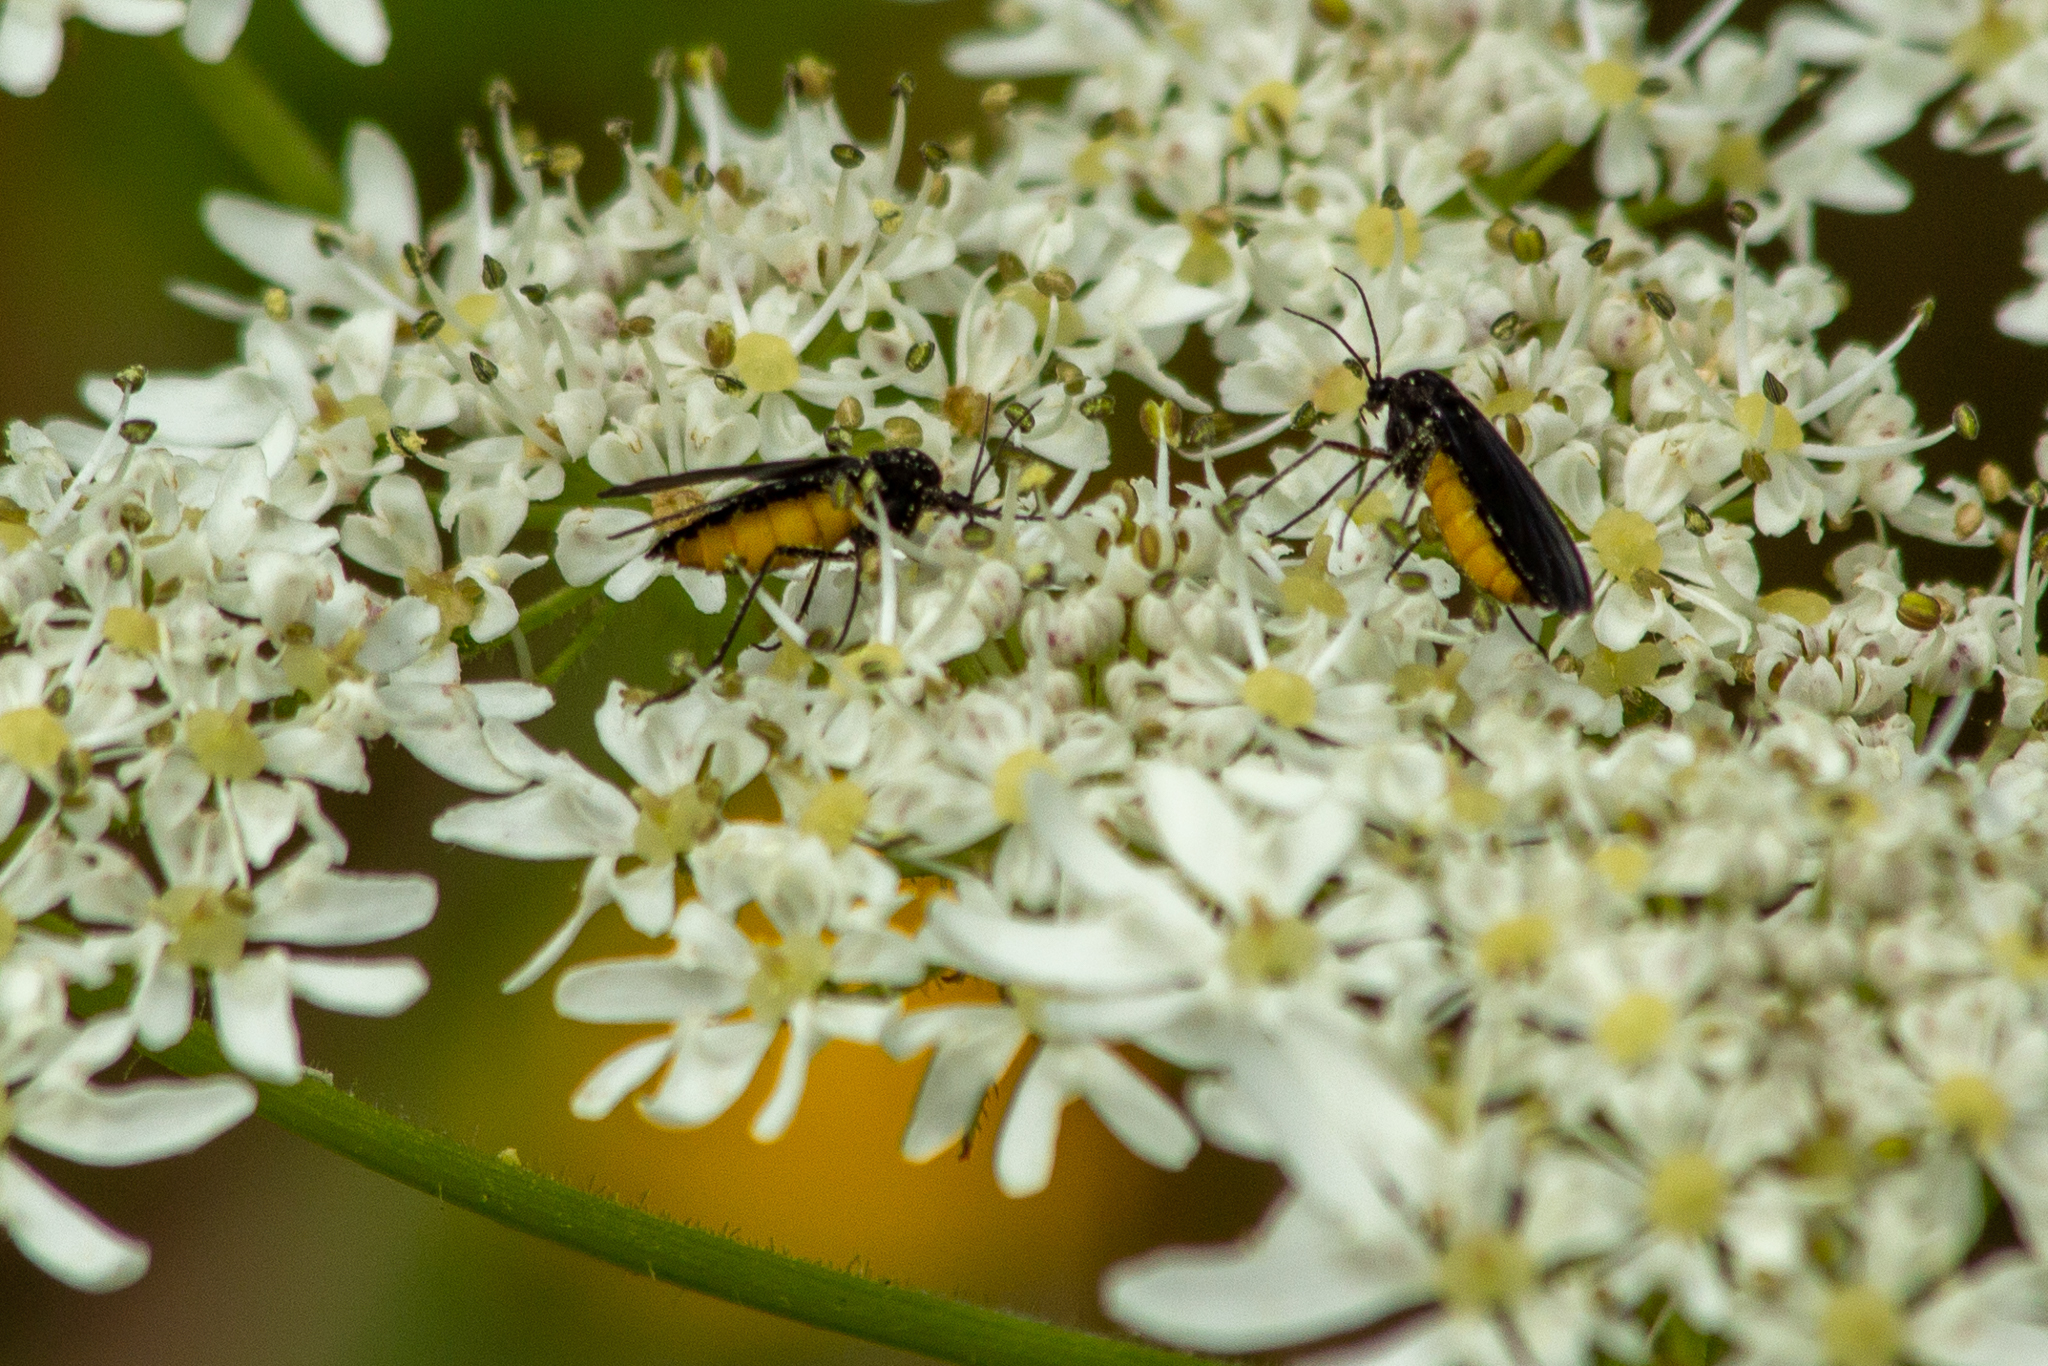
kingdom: Animalia
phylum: Arthropoda
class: Insecta
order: Diptera
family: Sciaridae
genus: Sciara
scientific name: Sciara hemerobioides
